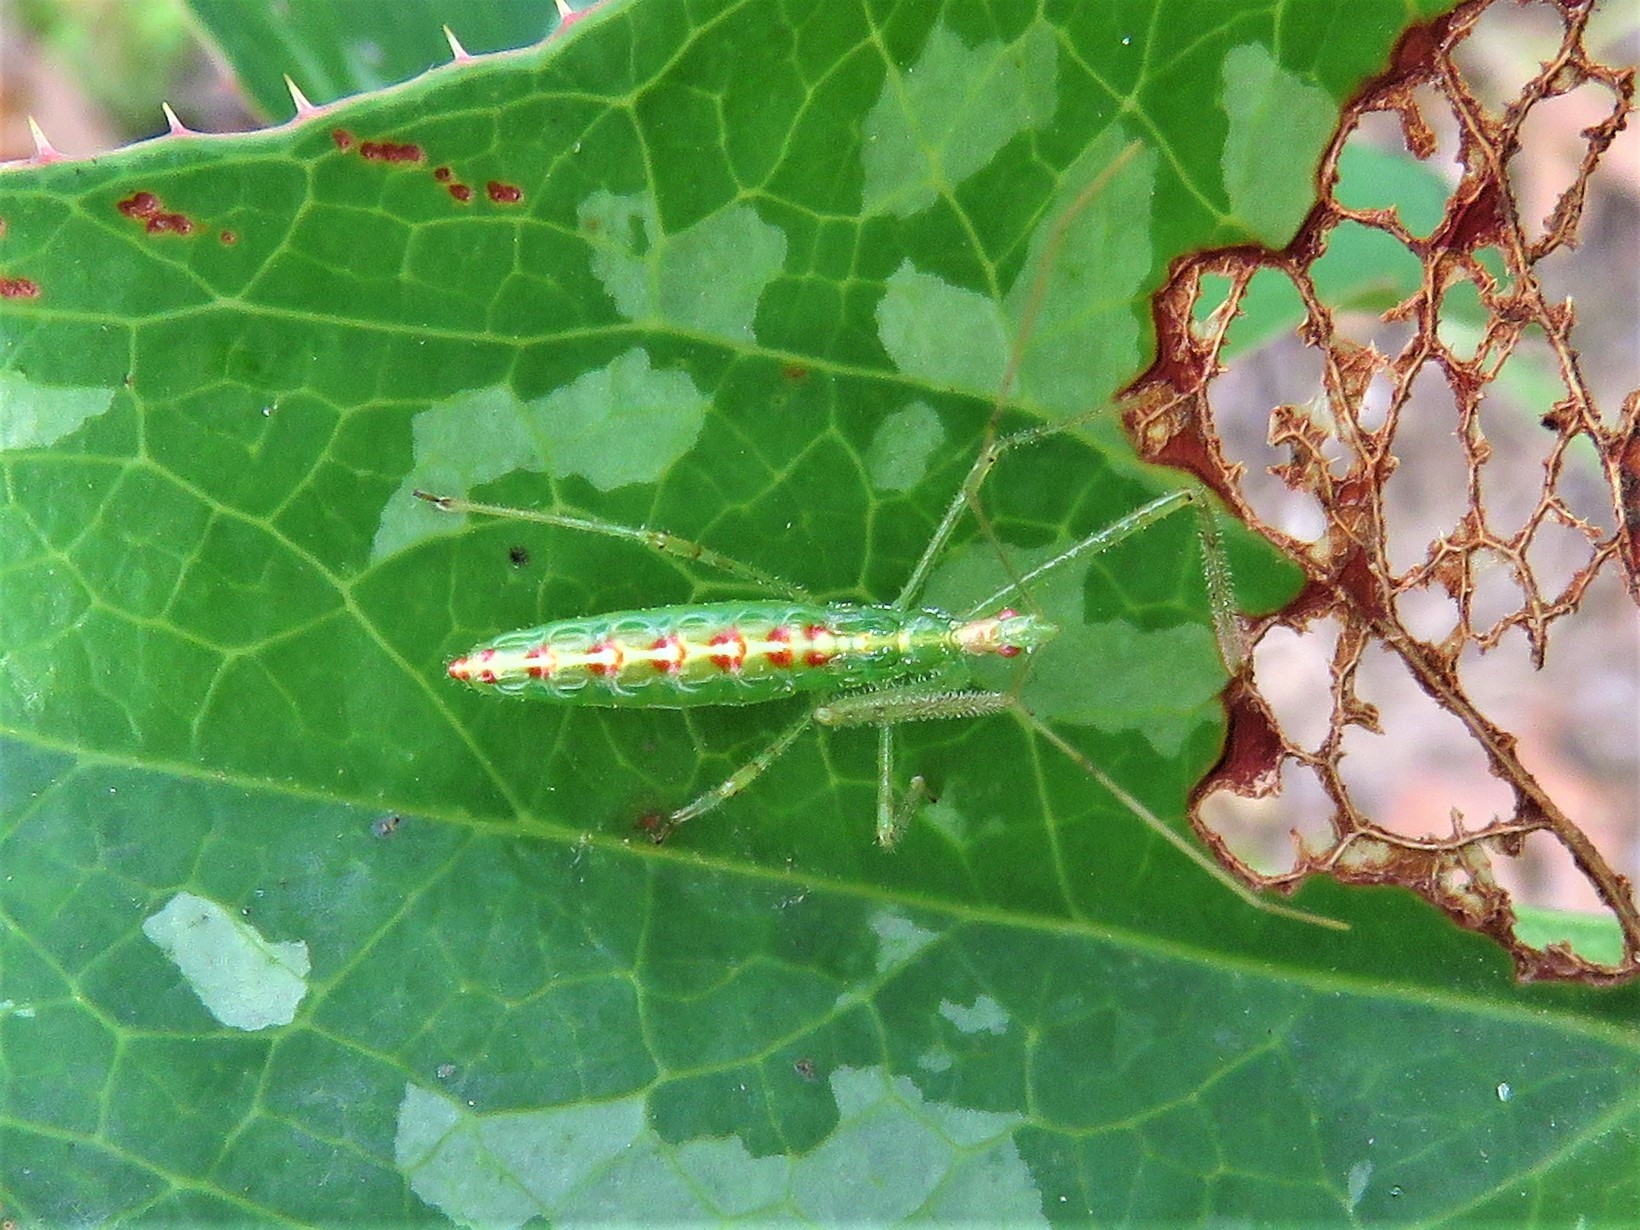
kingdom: Animalia
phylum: Arthropoda
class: Insecta
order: Hemiptera
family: Reduviidae
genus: Zelus
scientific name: Zelus luridus
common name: Pale green assassin bug
